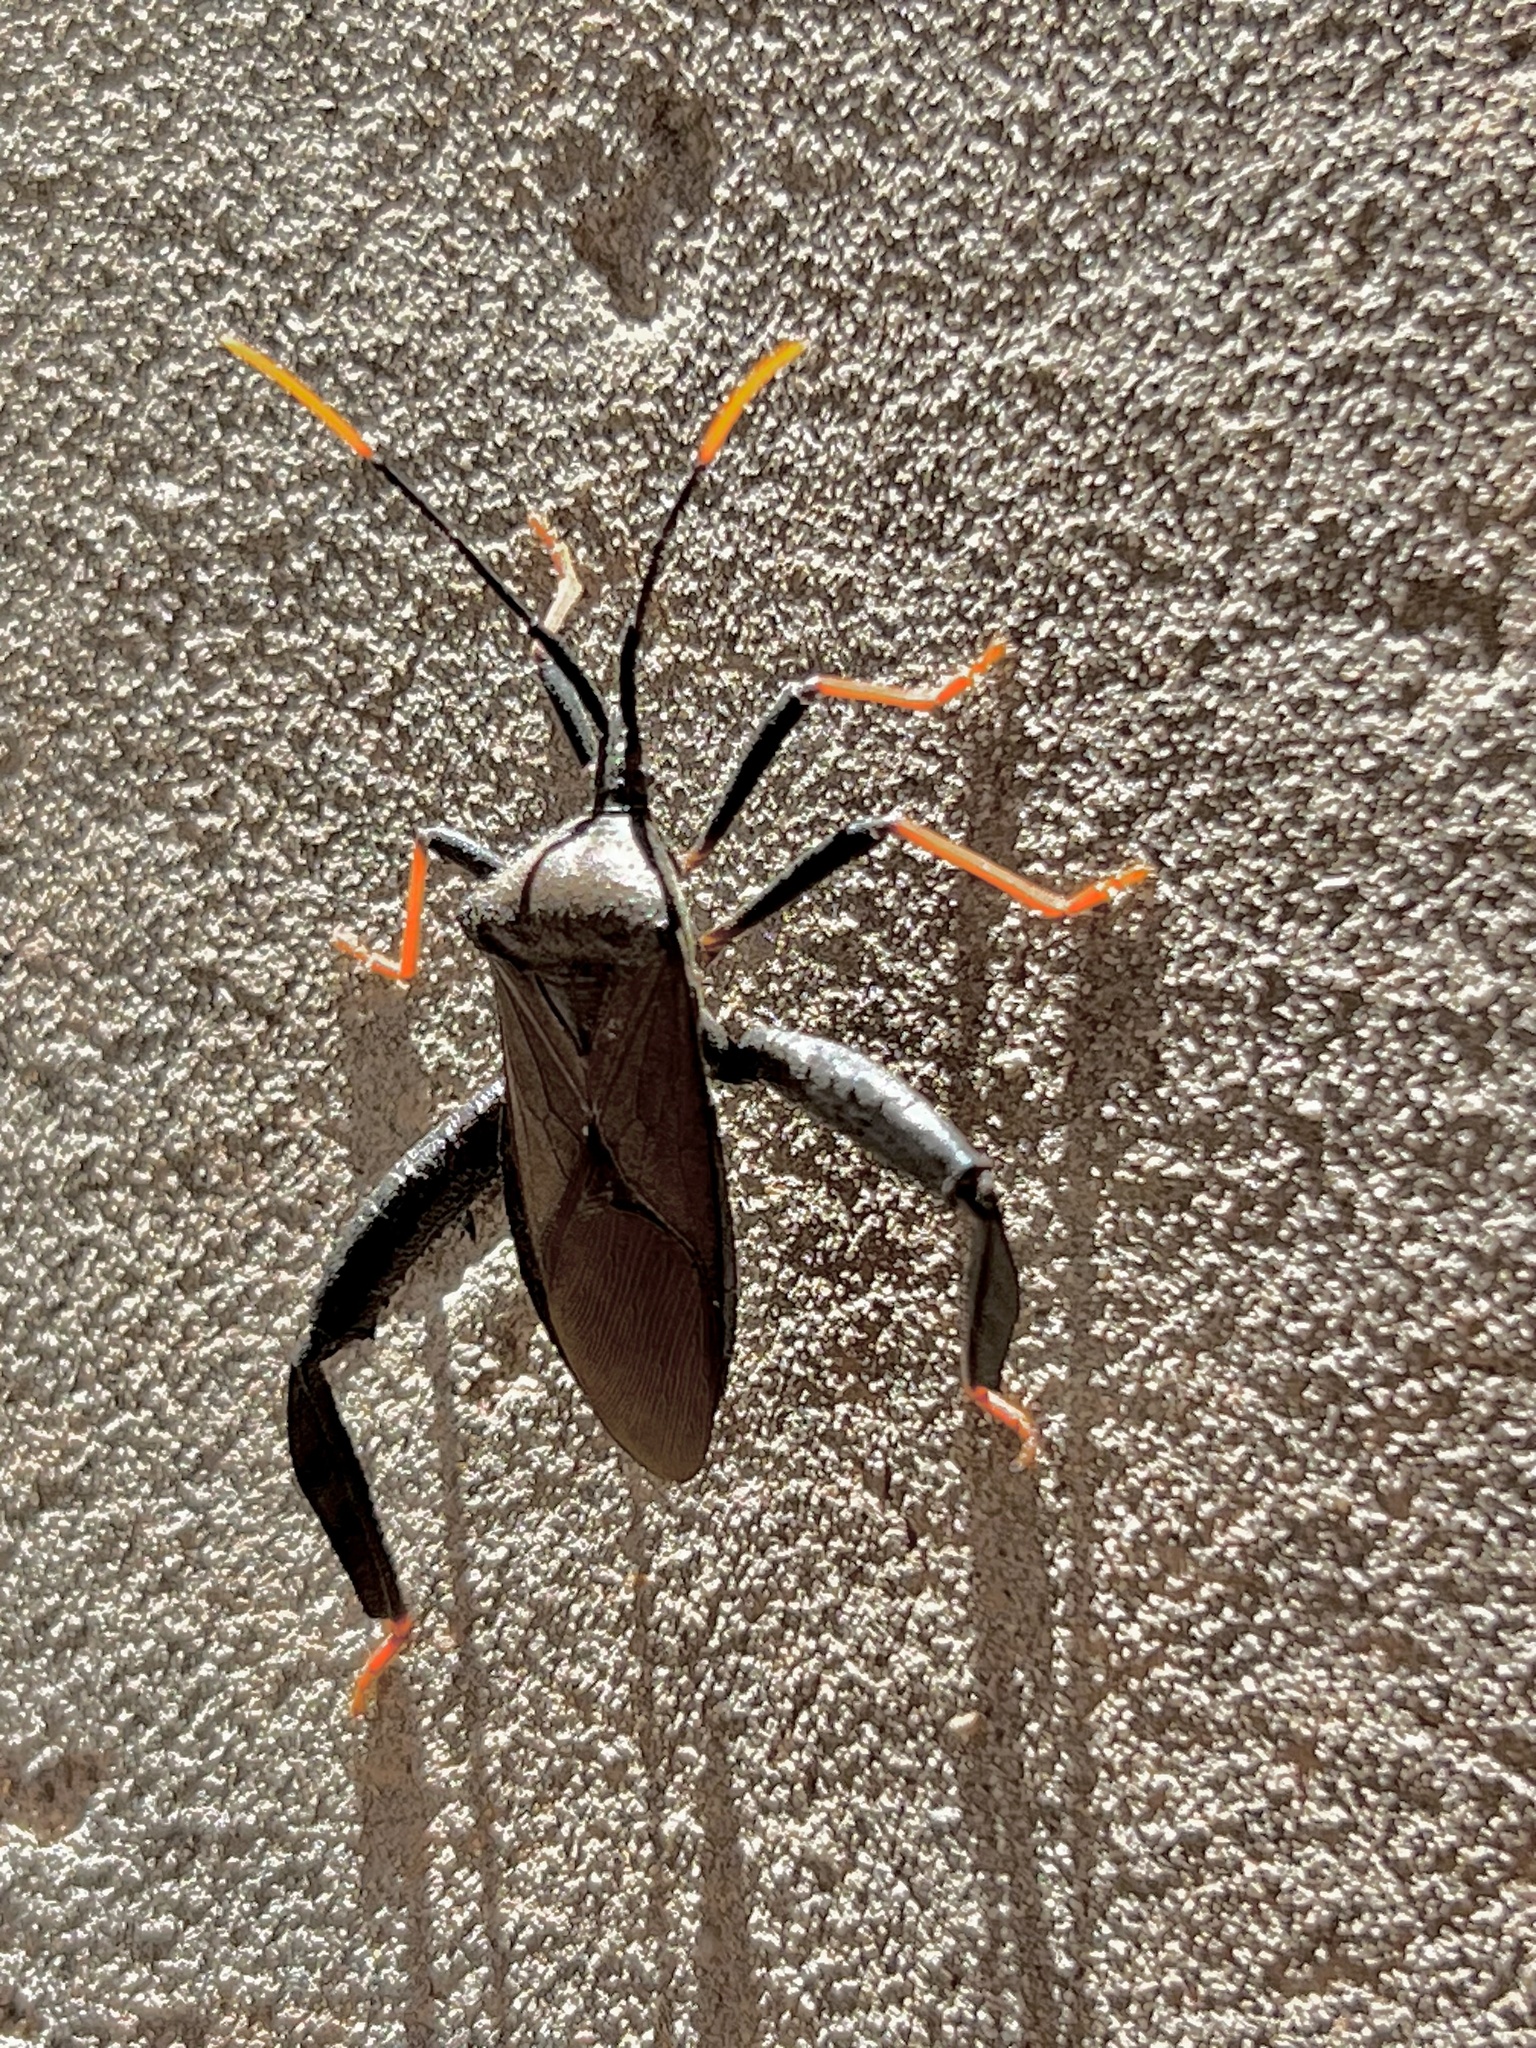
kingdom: Animalia
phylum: Arthropoda
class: Insecta
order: Hemiptera
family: Coreidae
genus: Acanthocephala
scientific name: Acanthocephala thomasi
